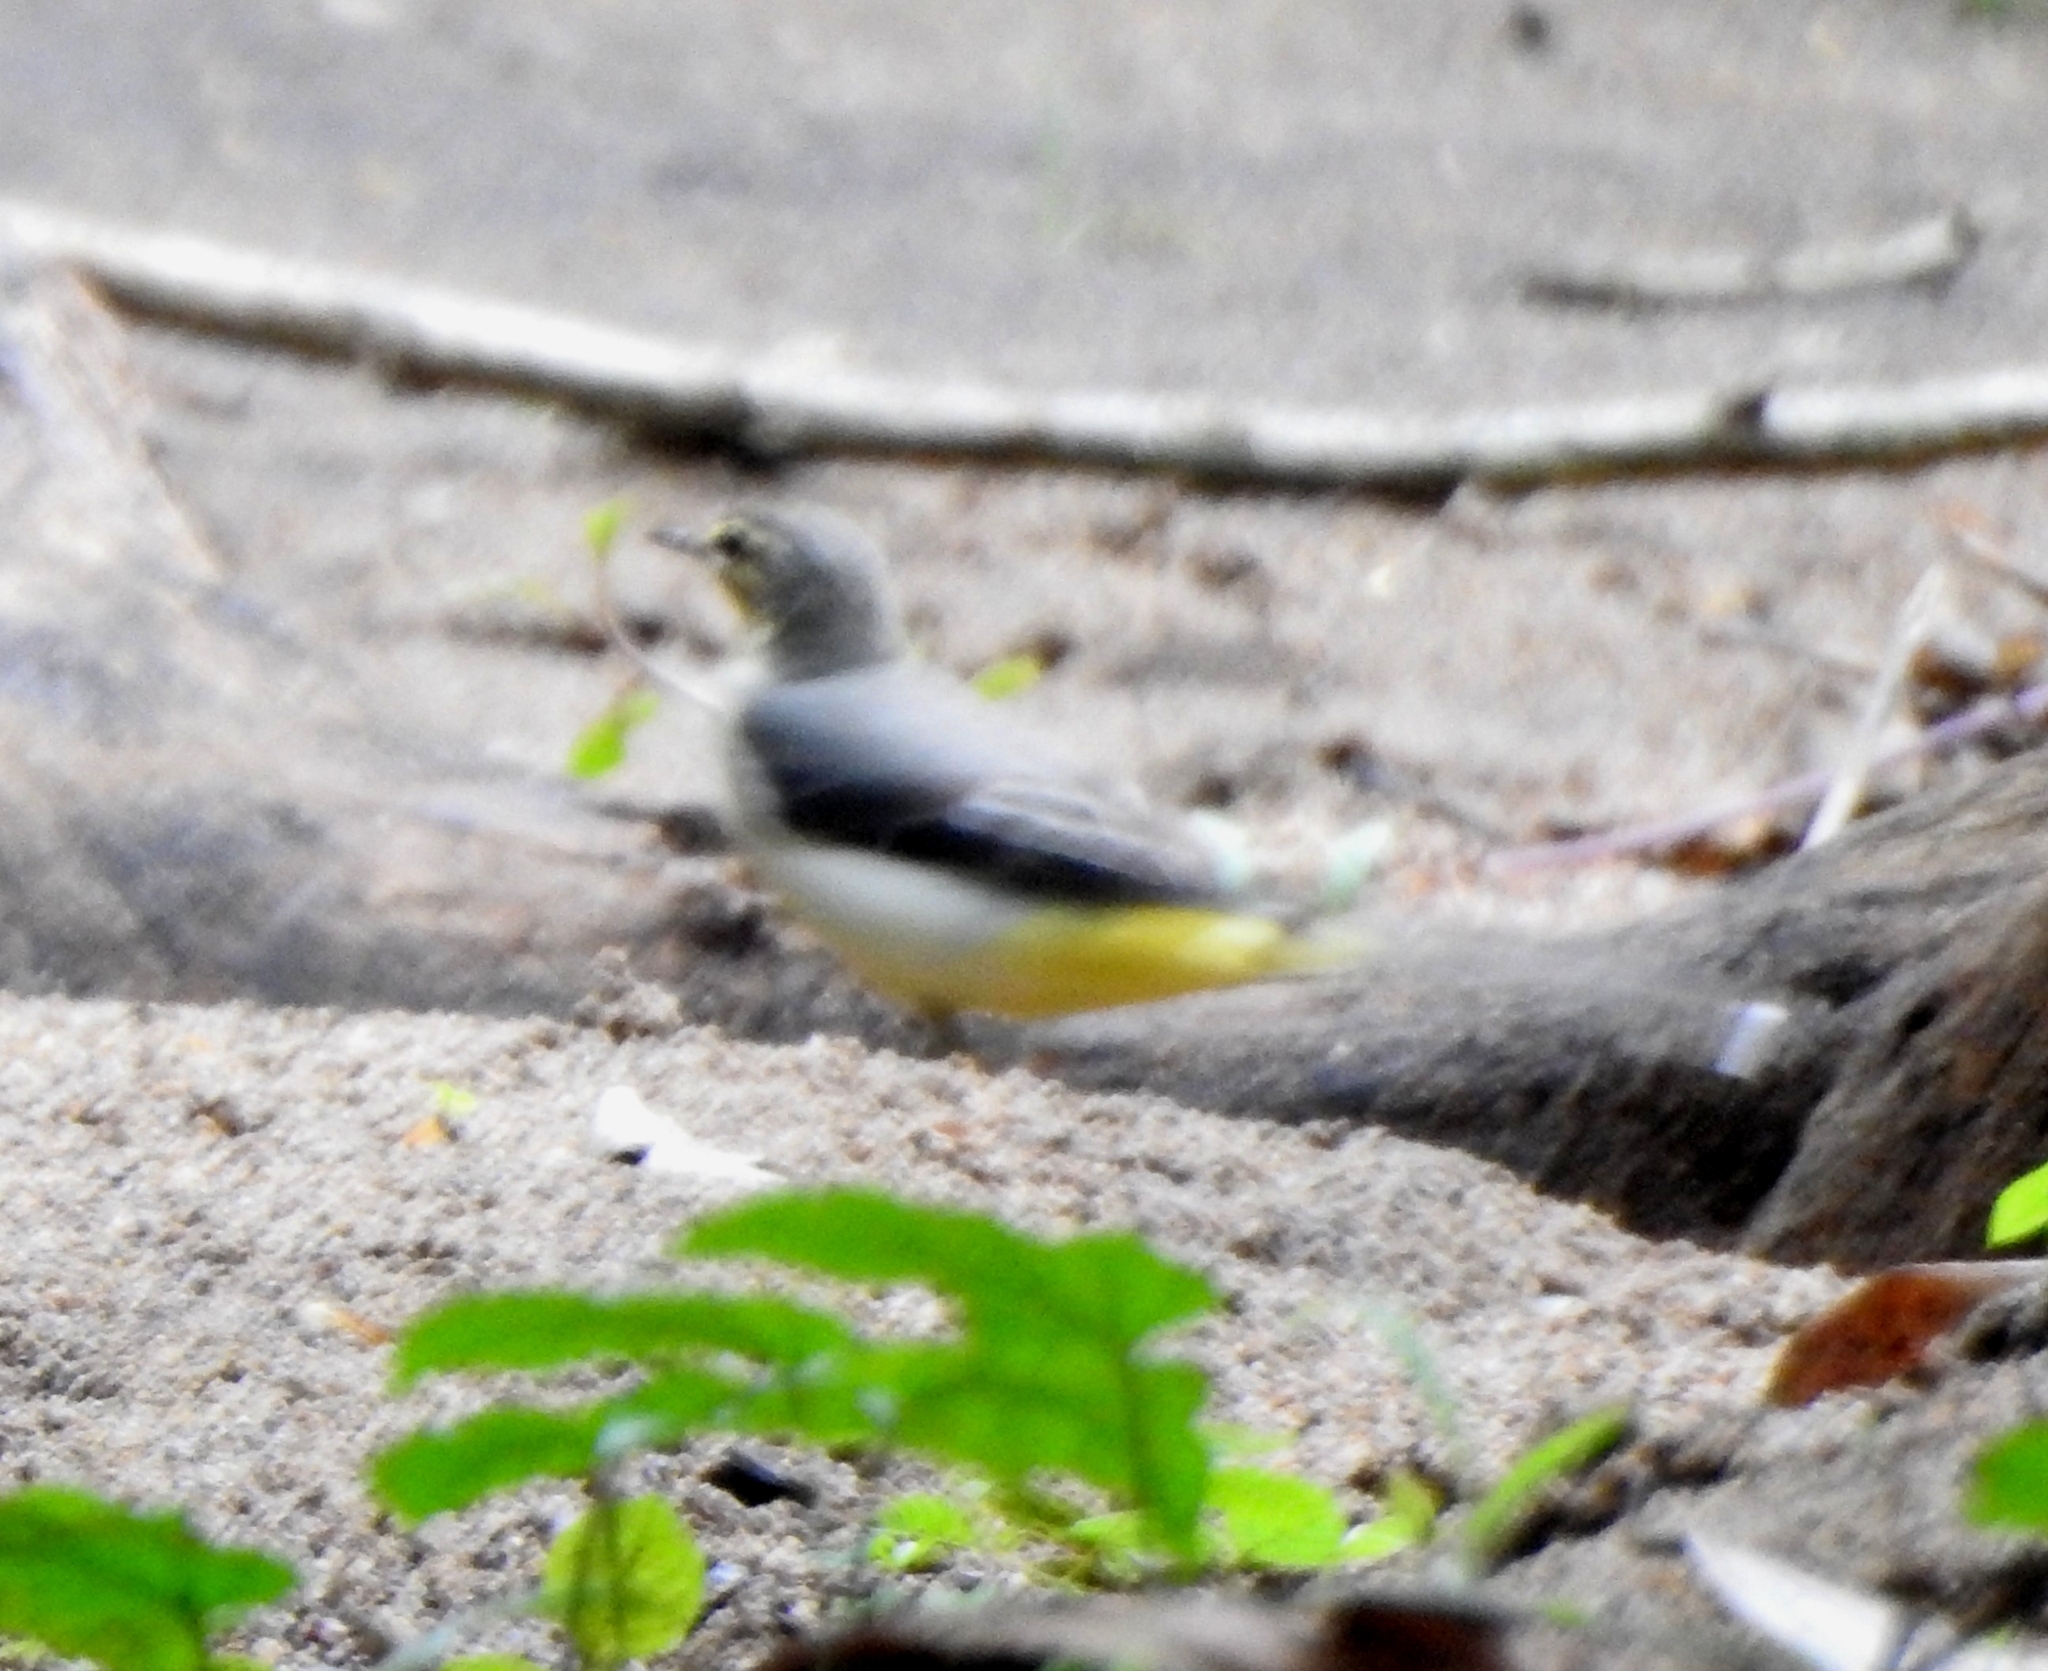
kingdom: Animalia
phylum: Chordata
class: Aves
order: Passeriformes
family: Motacillidae
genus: Motacilla
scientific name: Motacilla cinerea
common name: Grey wagtail
